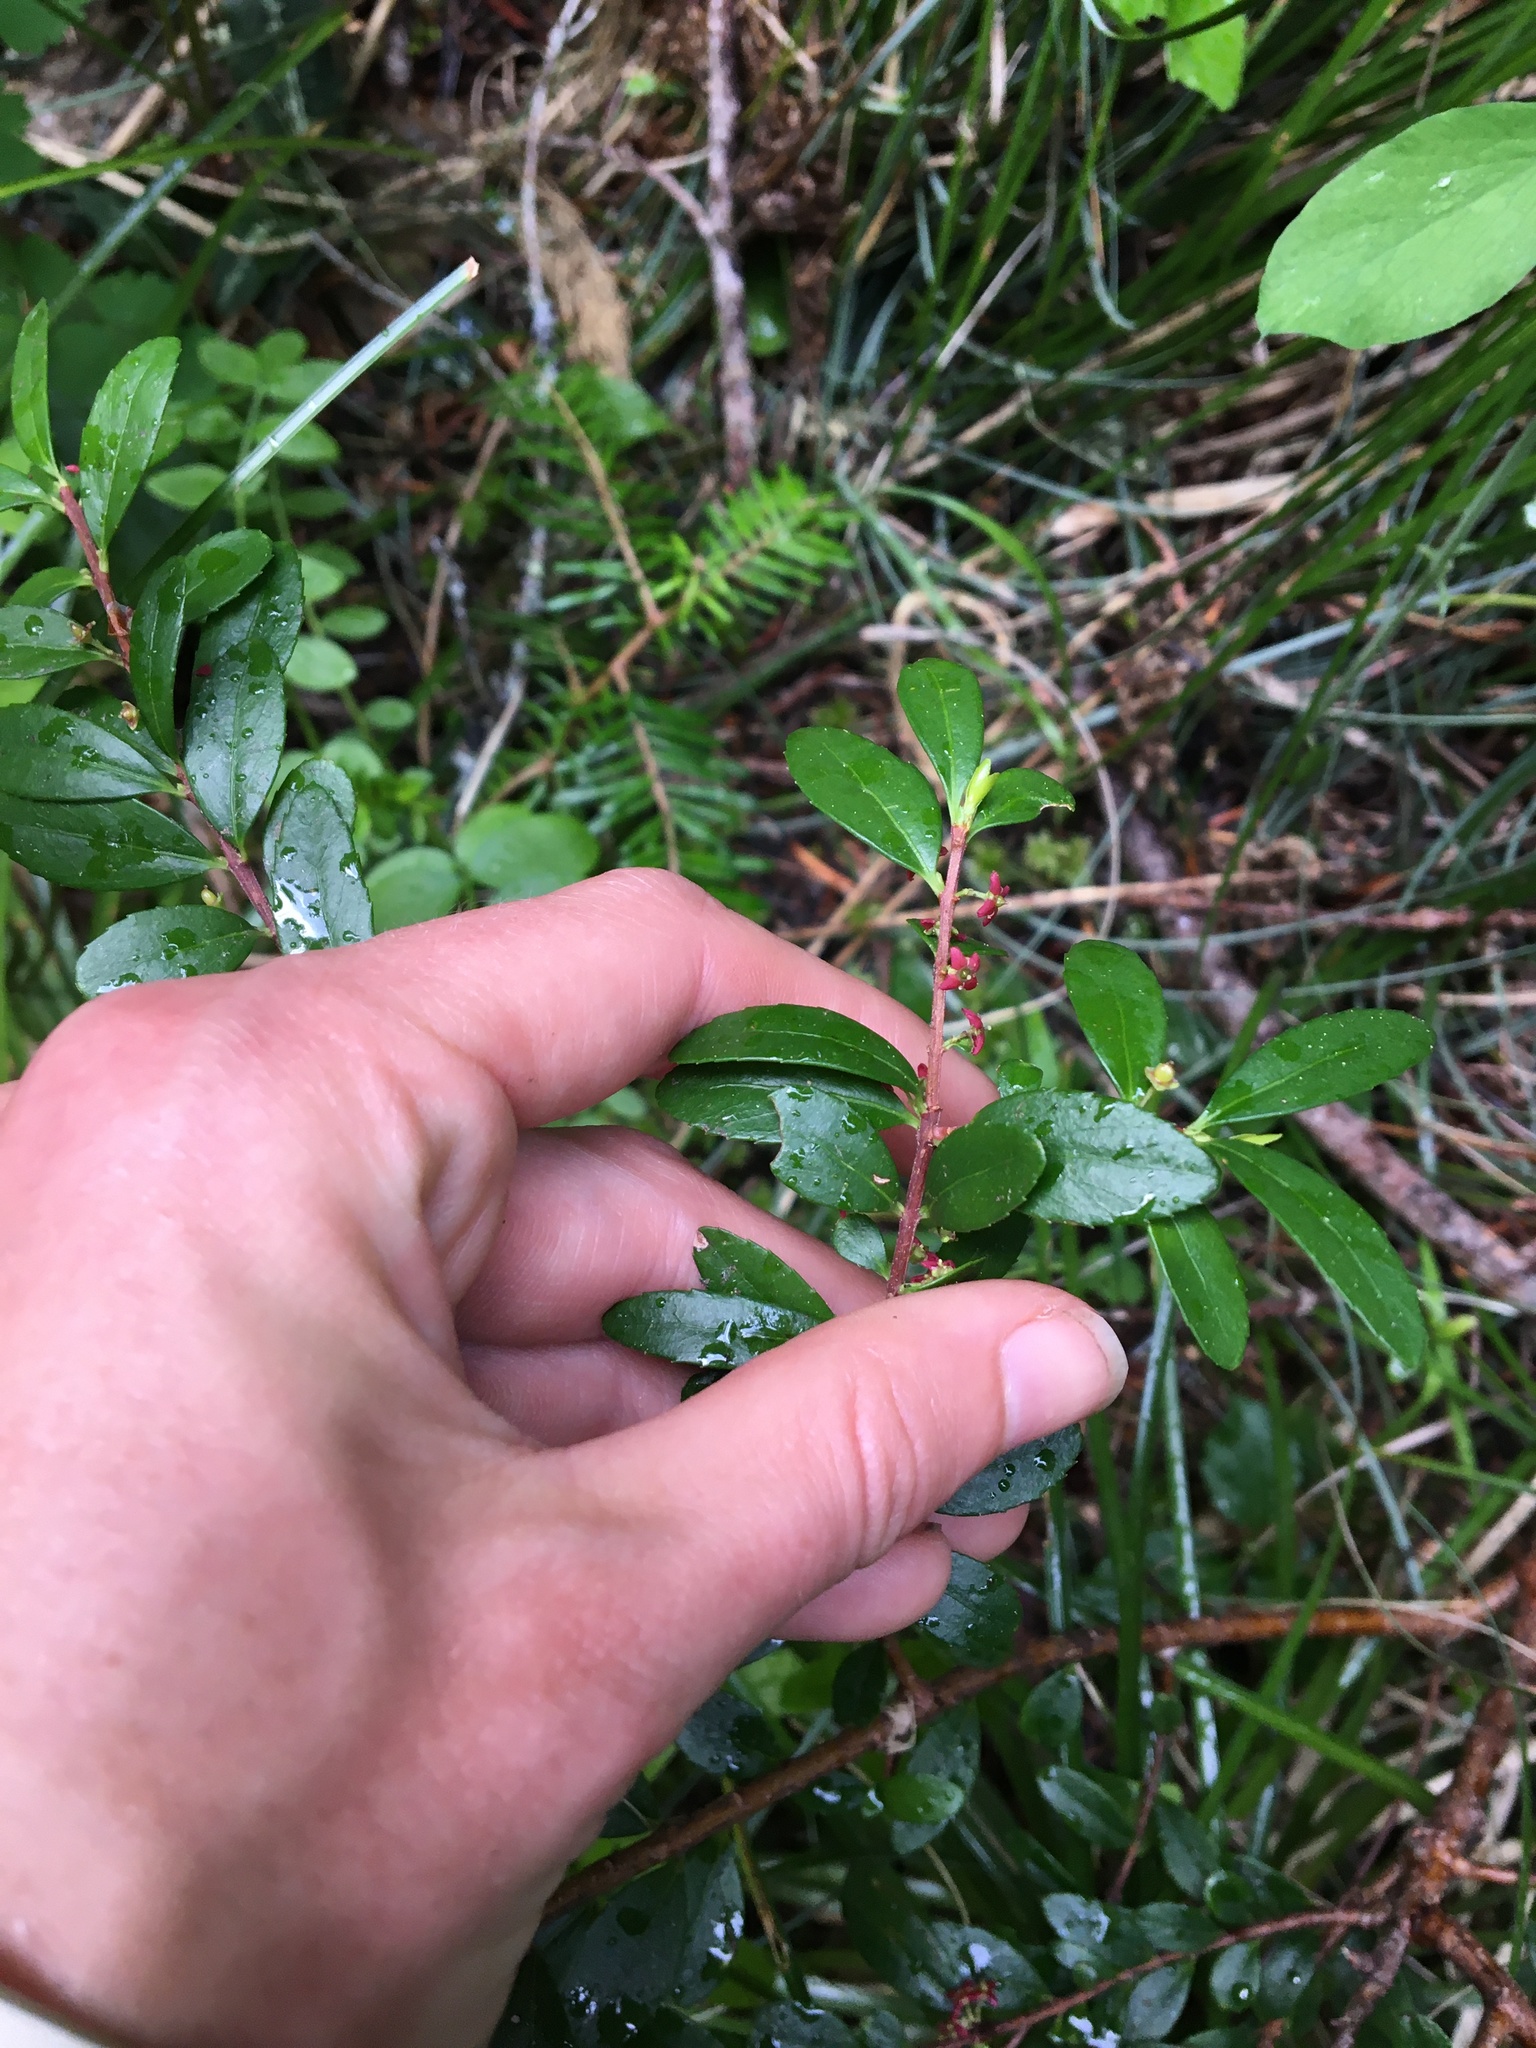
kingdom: Plantae
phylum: Tracheophyta
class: Magnoliopsida
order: Celastrales
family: Celastraceae
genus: Paxistima
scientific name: Paxistima myrsinites
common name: Mountain-lover
